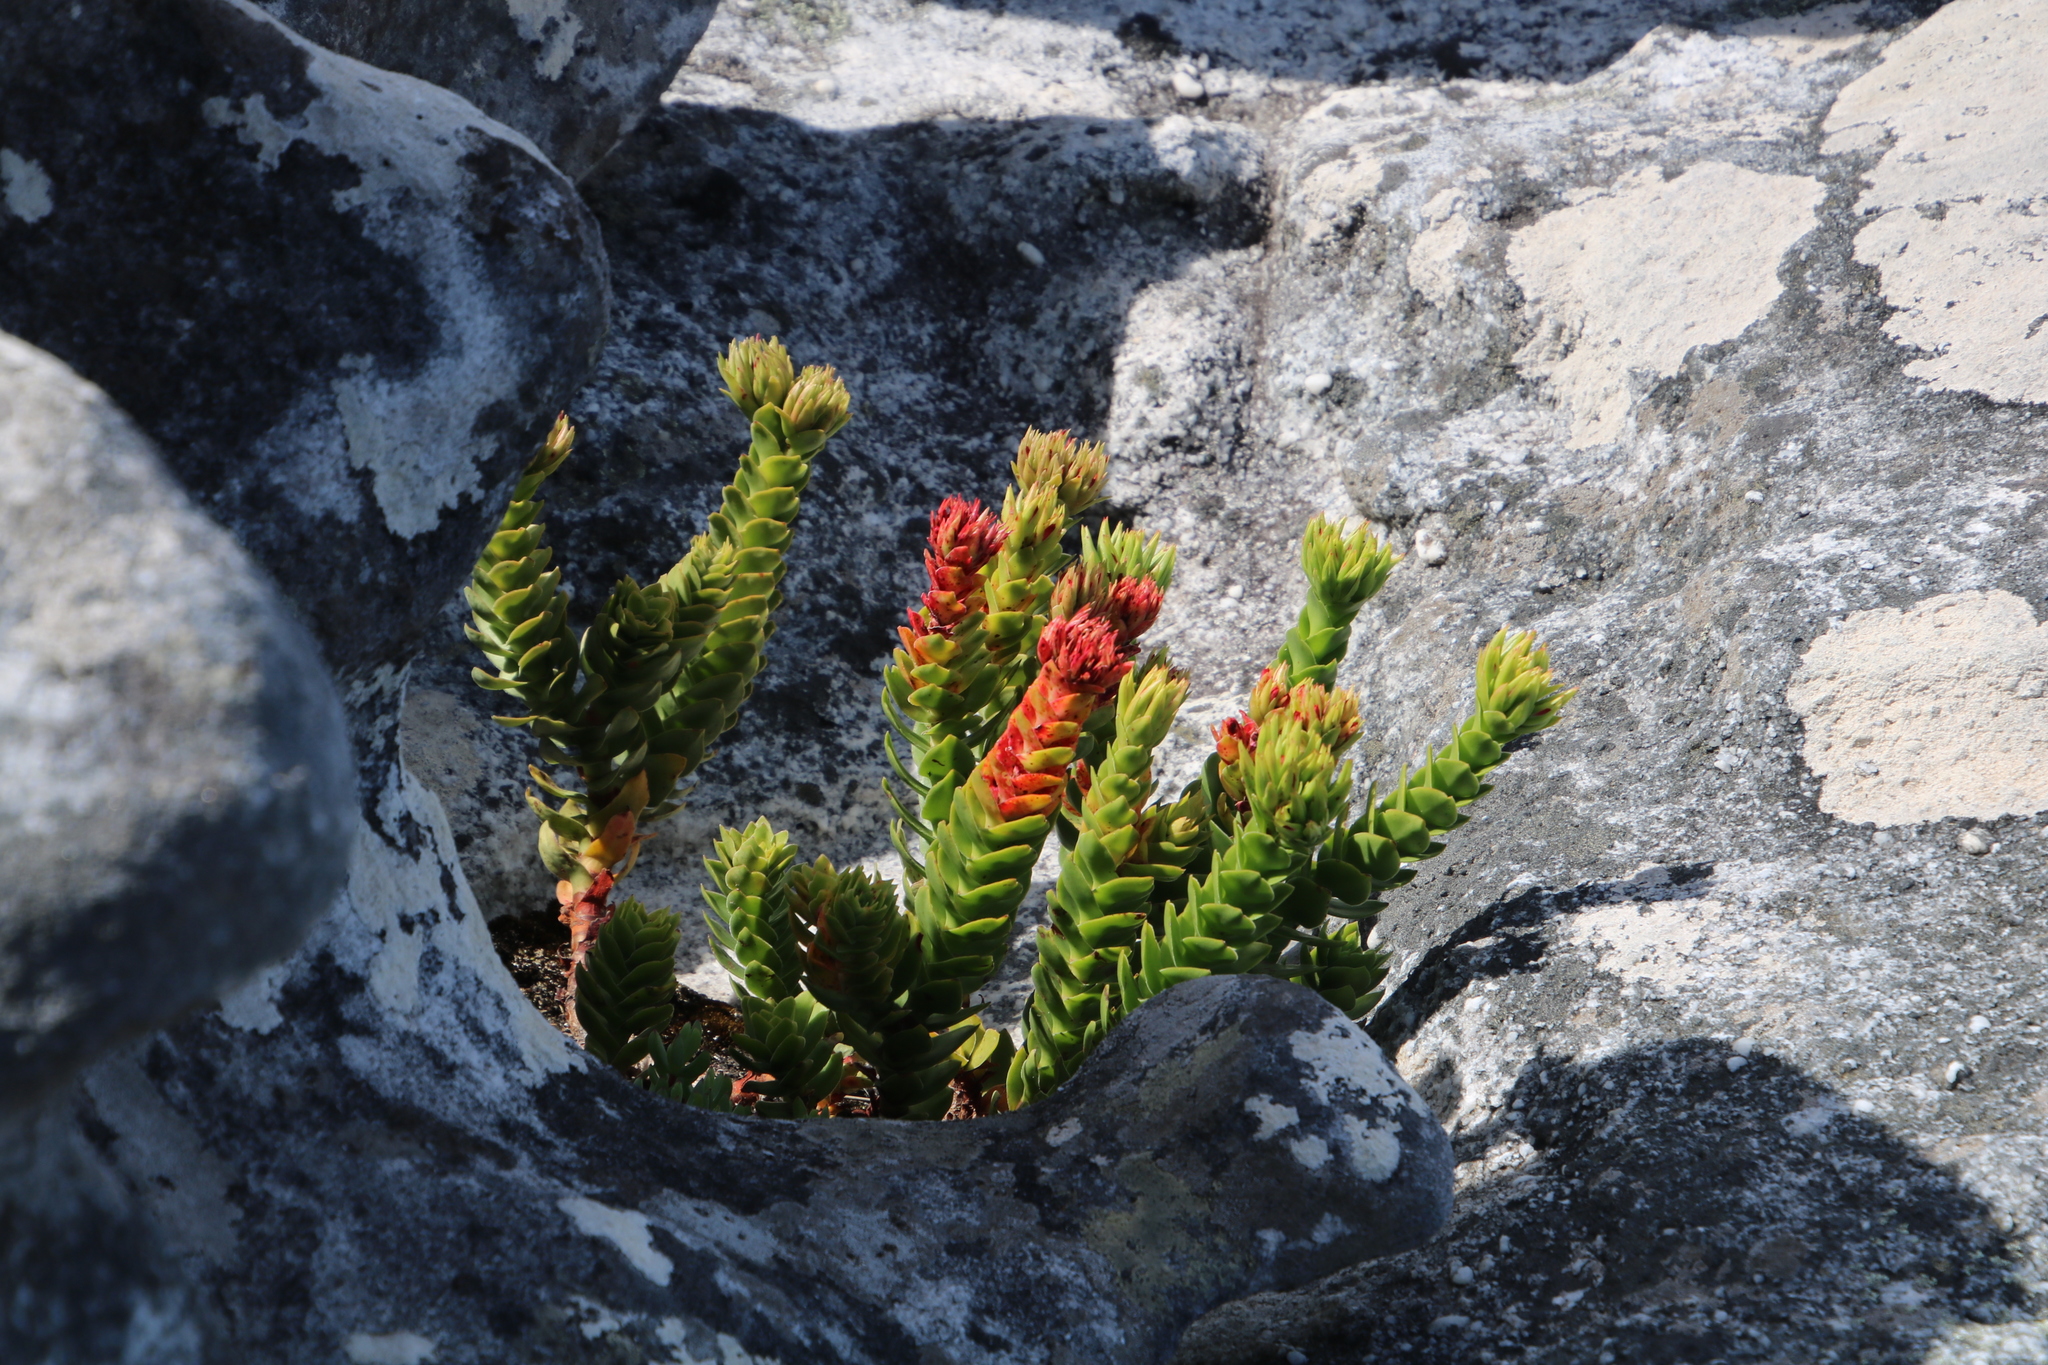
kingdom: Plantae
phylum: Tracheophyta
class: Magnoliopsida
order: Saxifragales
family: Crassulaceae
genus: Crassula
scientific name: Crassula coccinea
